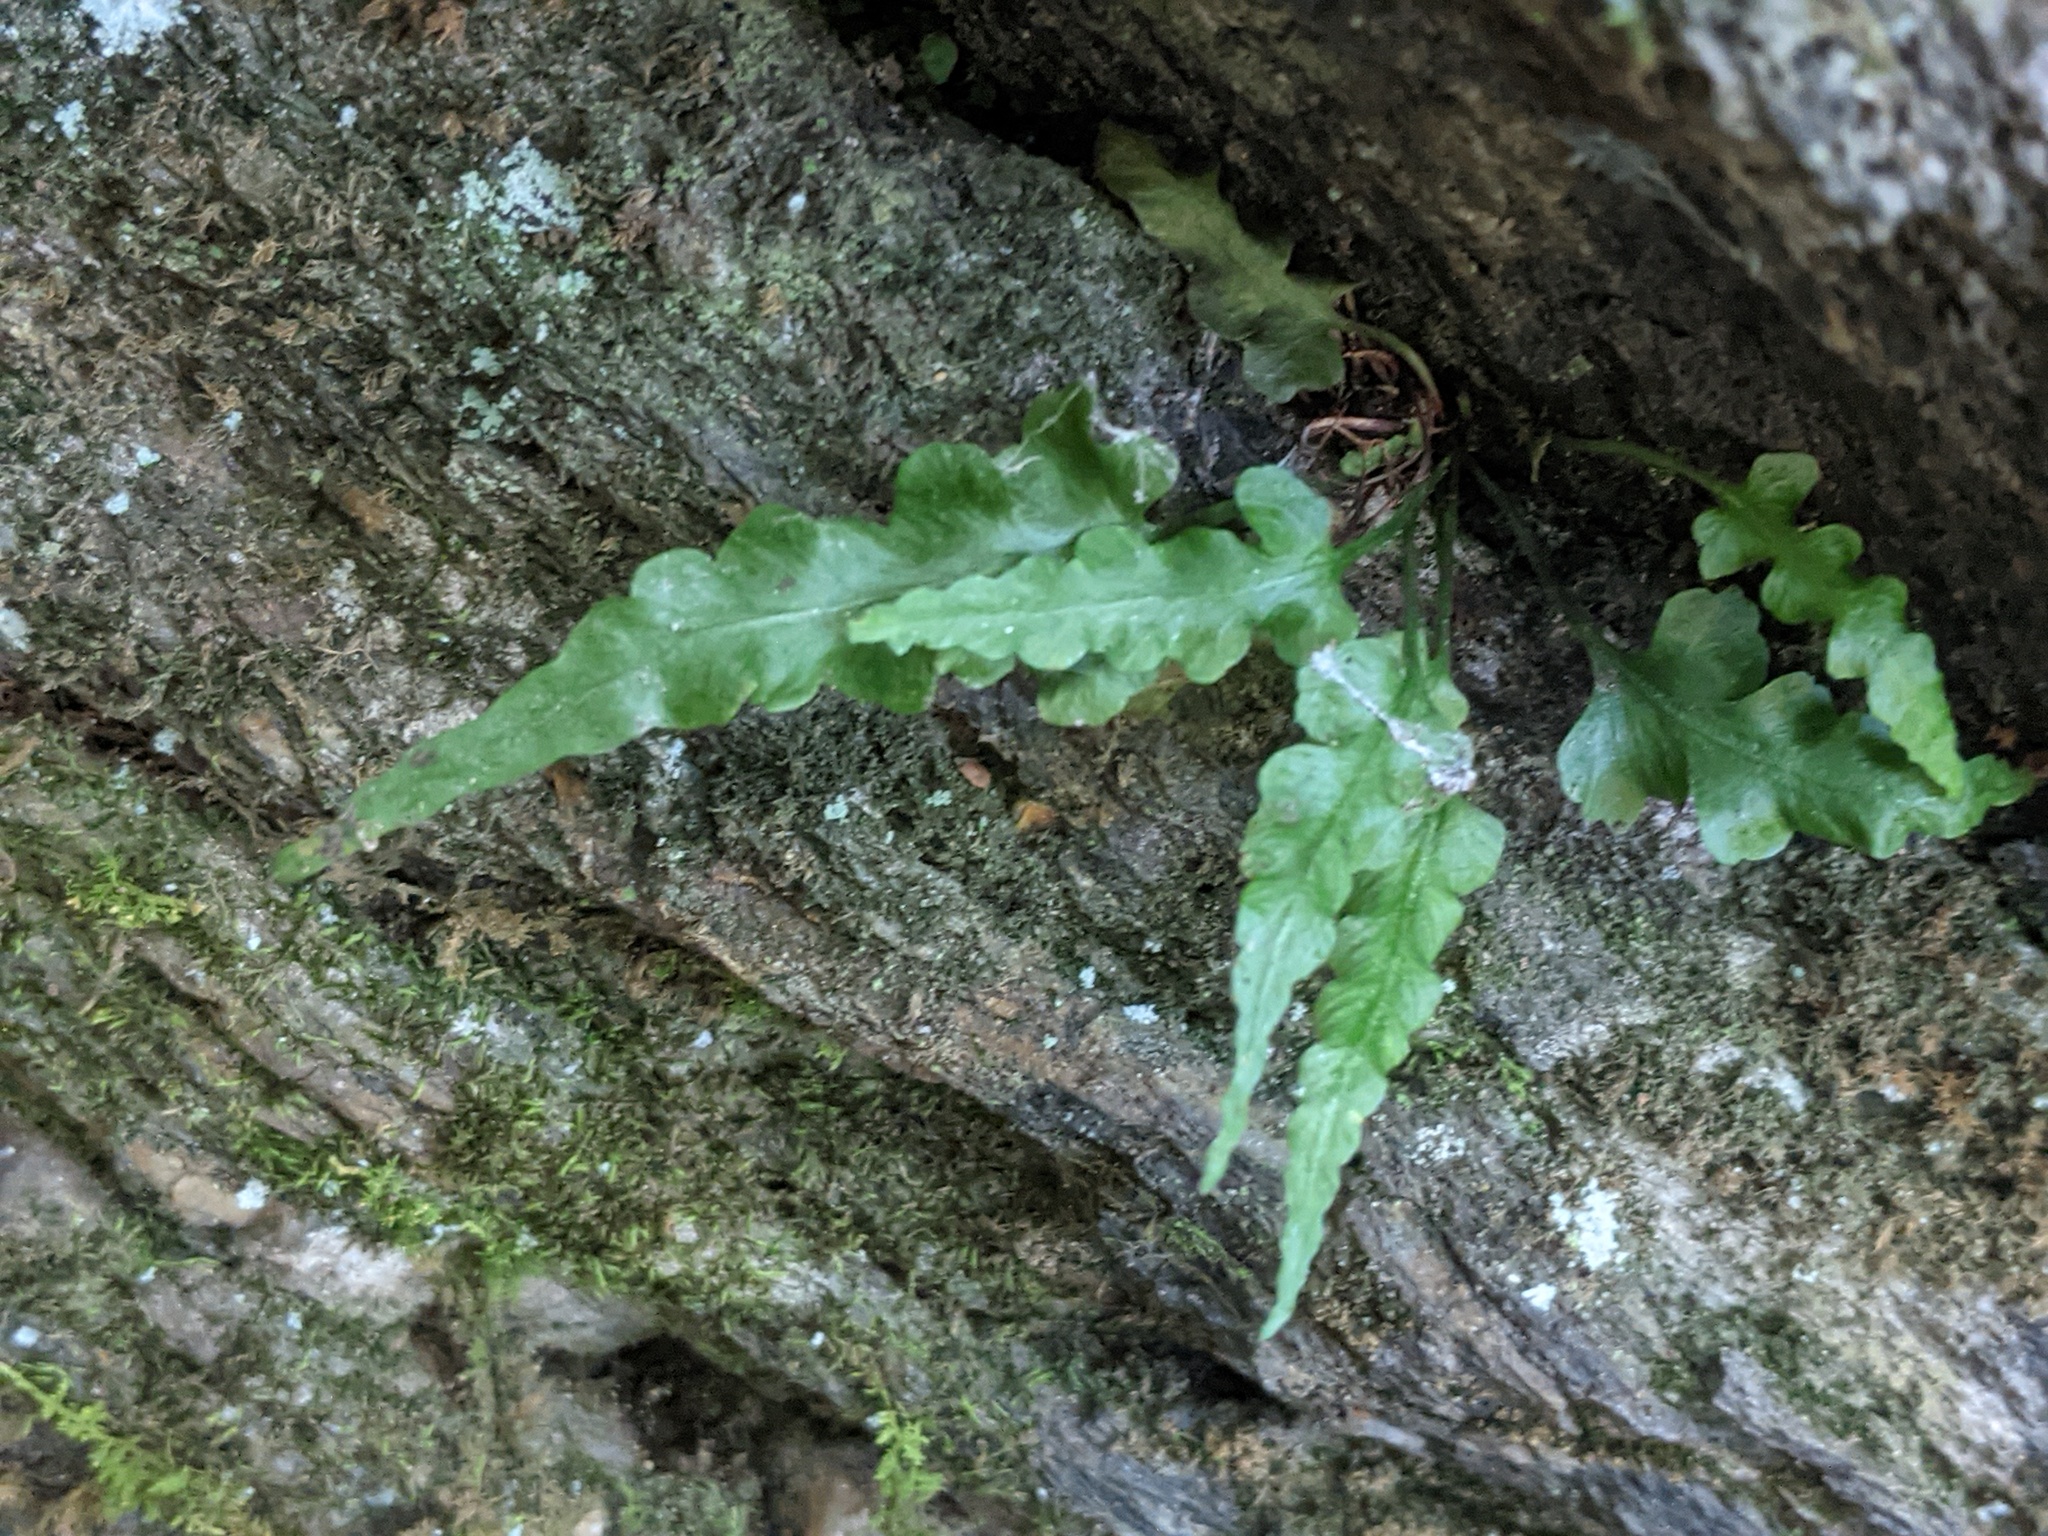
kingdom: Plantae
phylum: Tracheophyta
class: Polypodiopsida
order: Polypodiales
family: Aspleniaceae
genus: Asplenium
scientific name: Asplenium pinnatifidum
